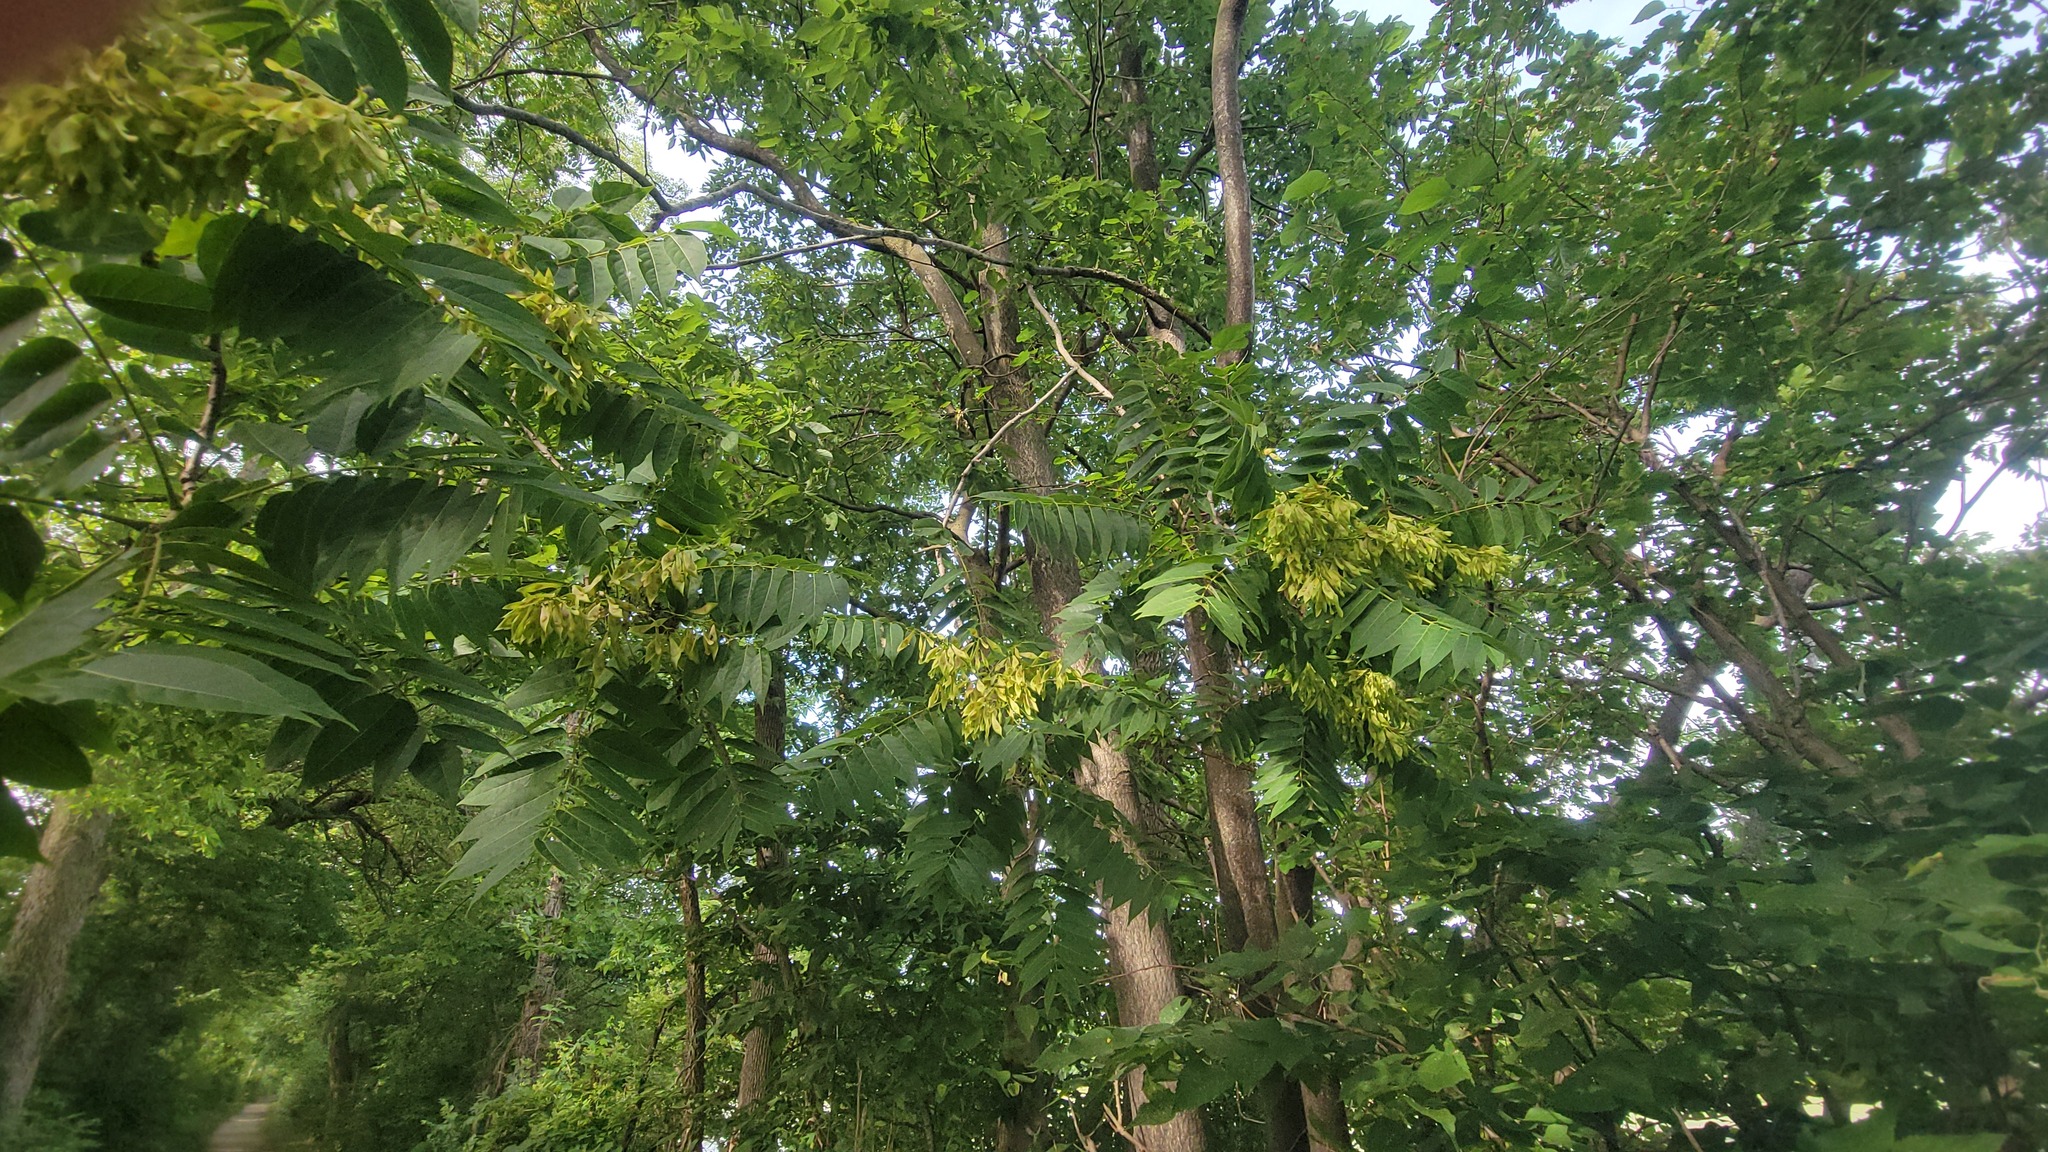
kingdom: Plantae
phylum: Tracheophyta
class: Magnoliopsida
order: Sapindales
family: Simaroubaceae
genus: Ailanthus
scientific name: Ailanthus altissima
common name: Tree-of-heaven
